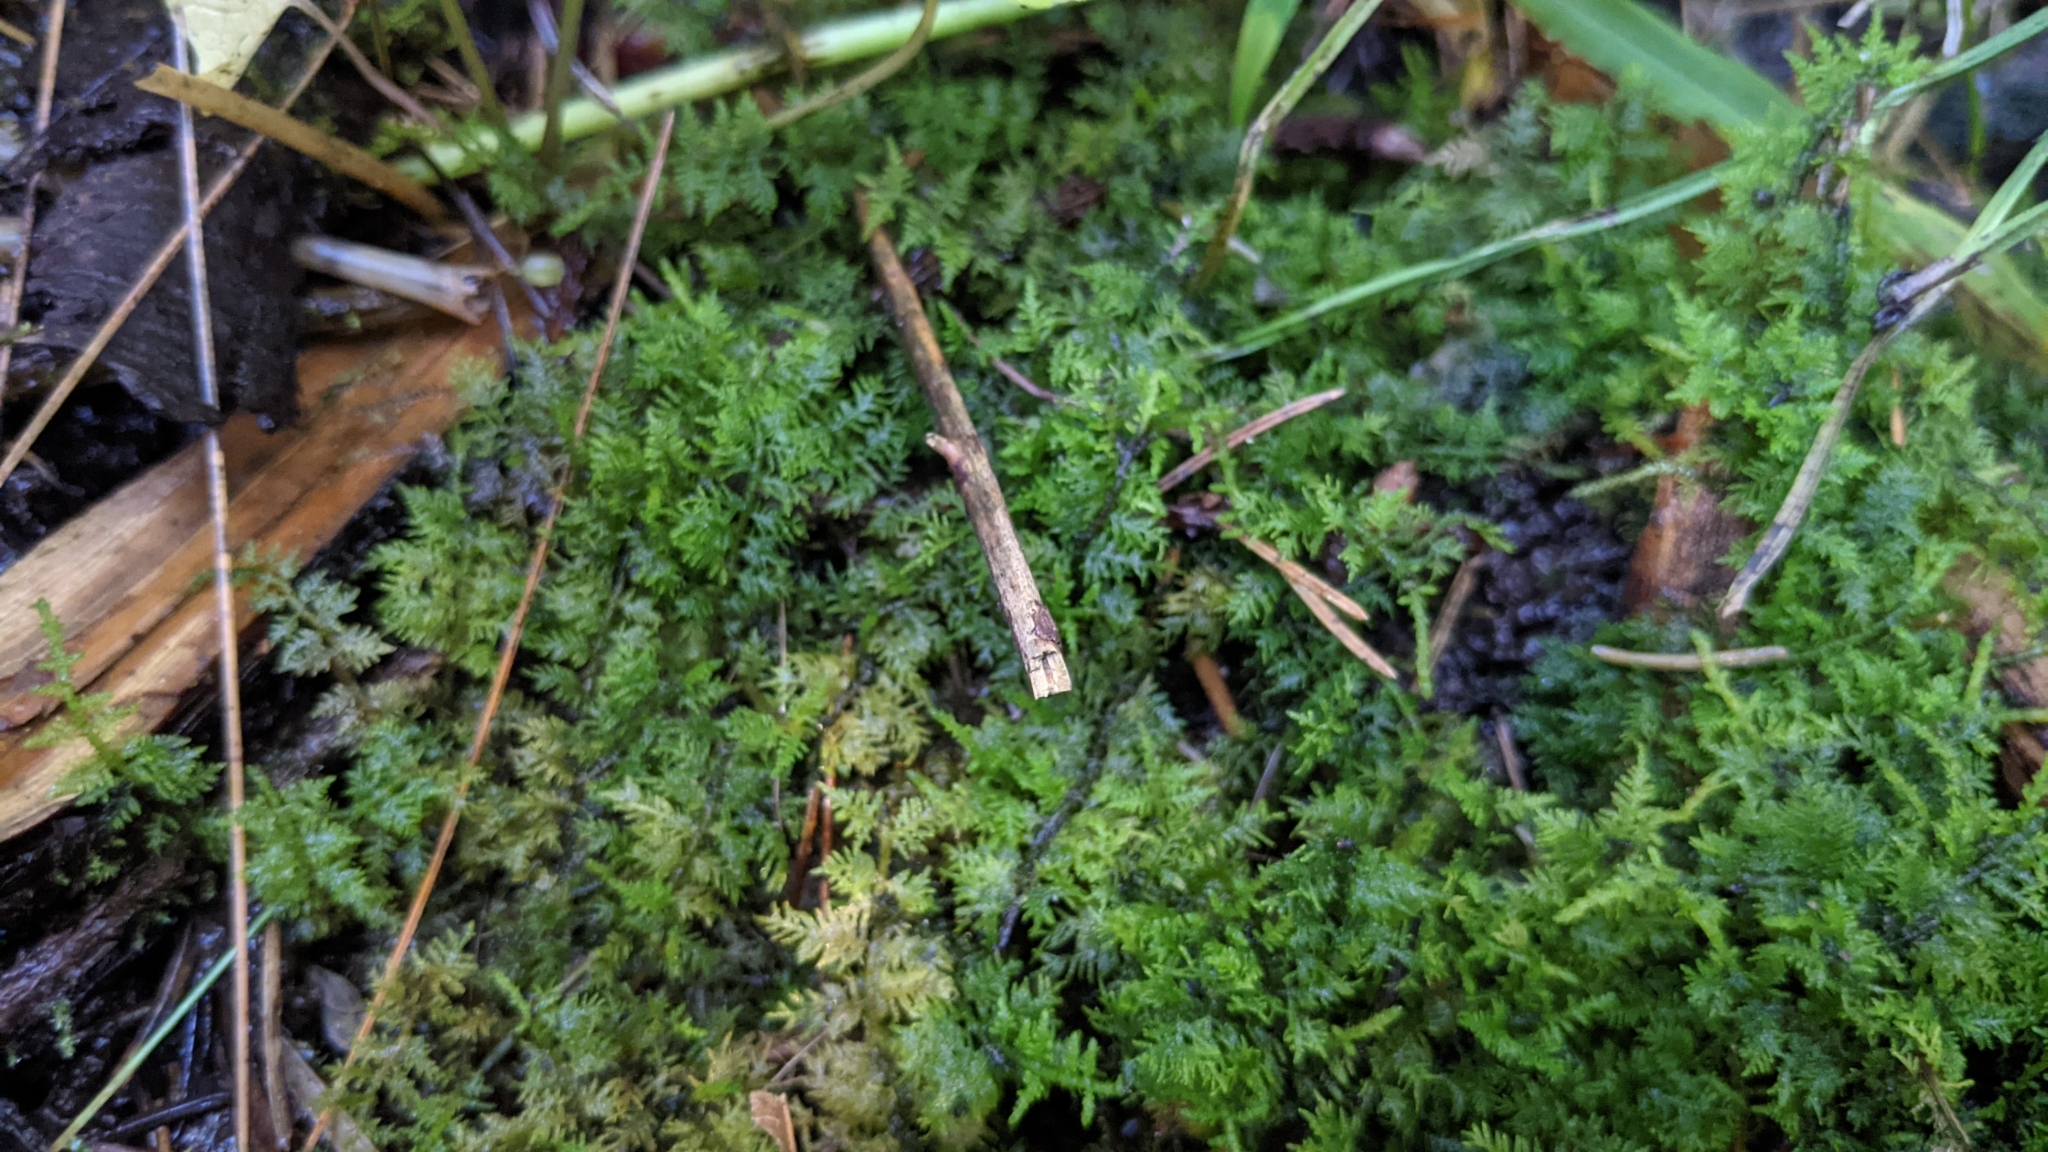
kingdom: Plantae
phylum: Bryophyta
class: Bryopsida
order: Hypnales
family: Thuidiaceae
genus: Thuidium
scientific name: Thuidium delicatulum
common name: Delicate fern moss
